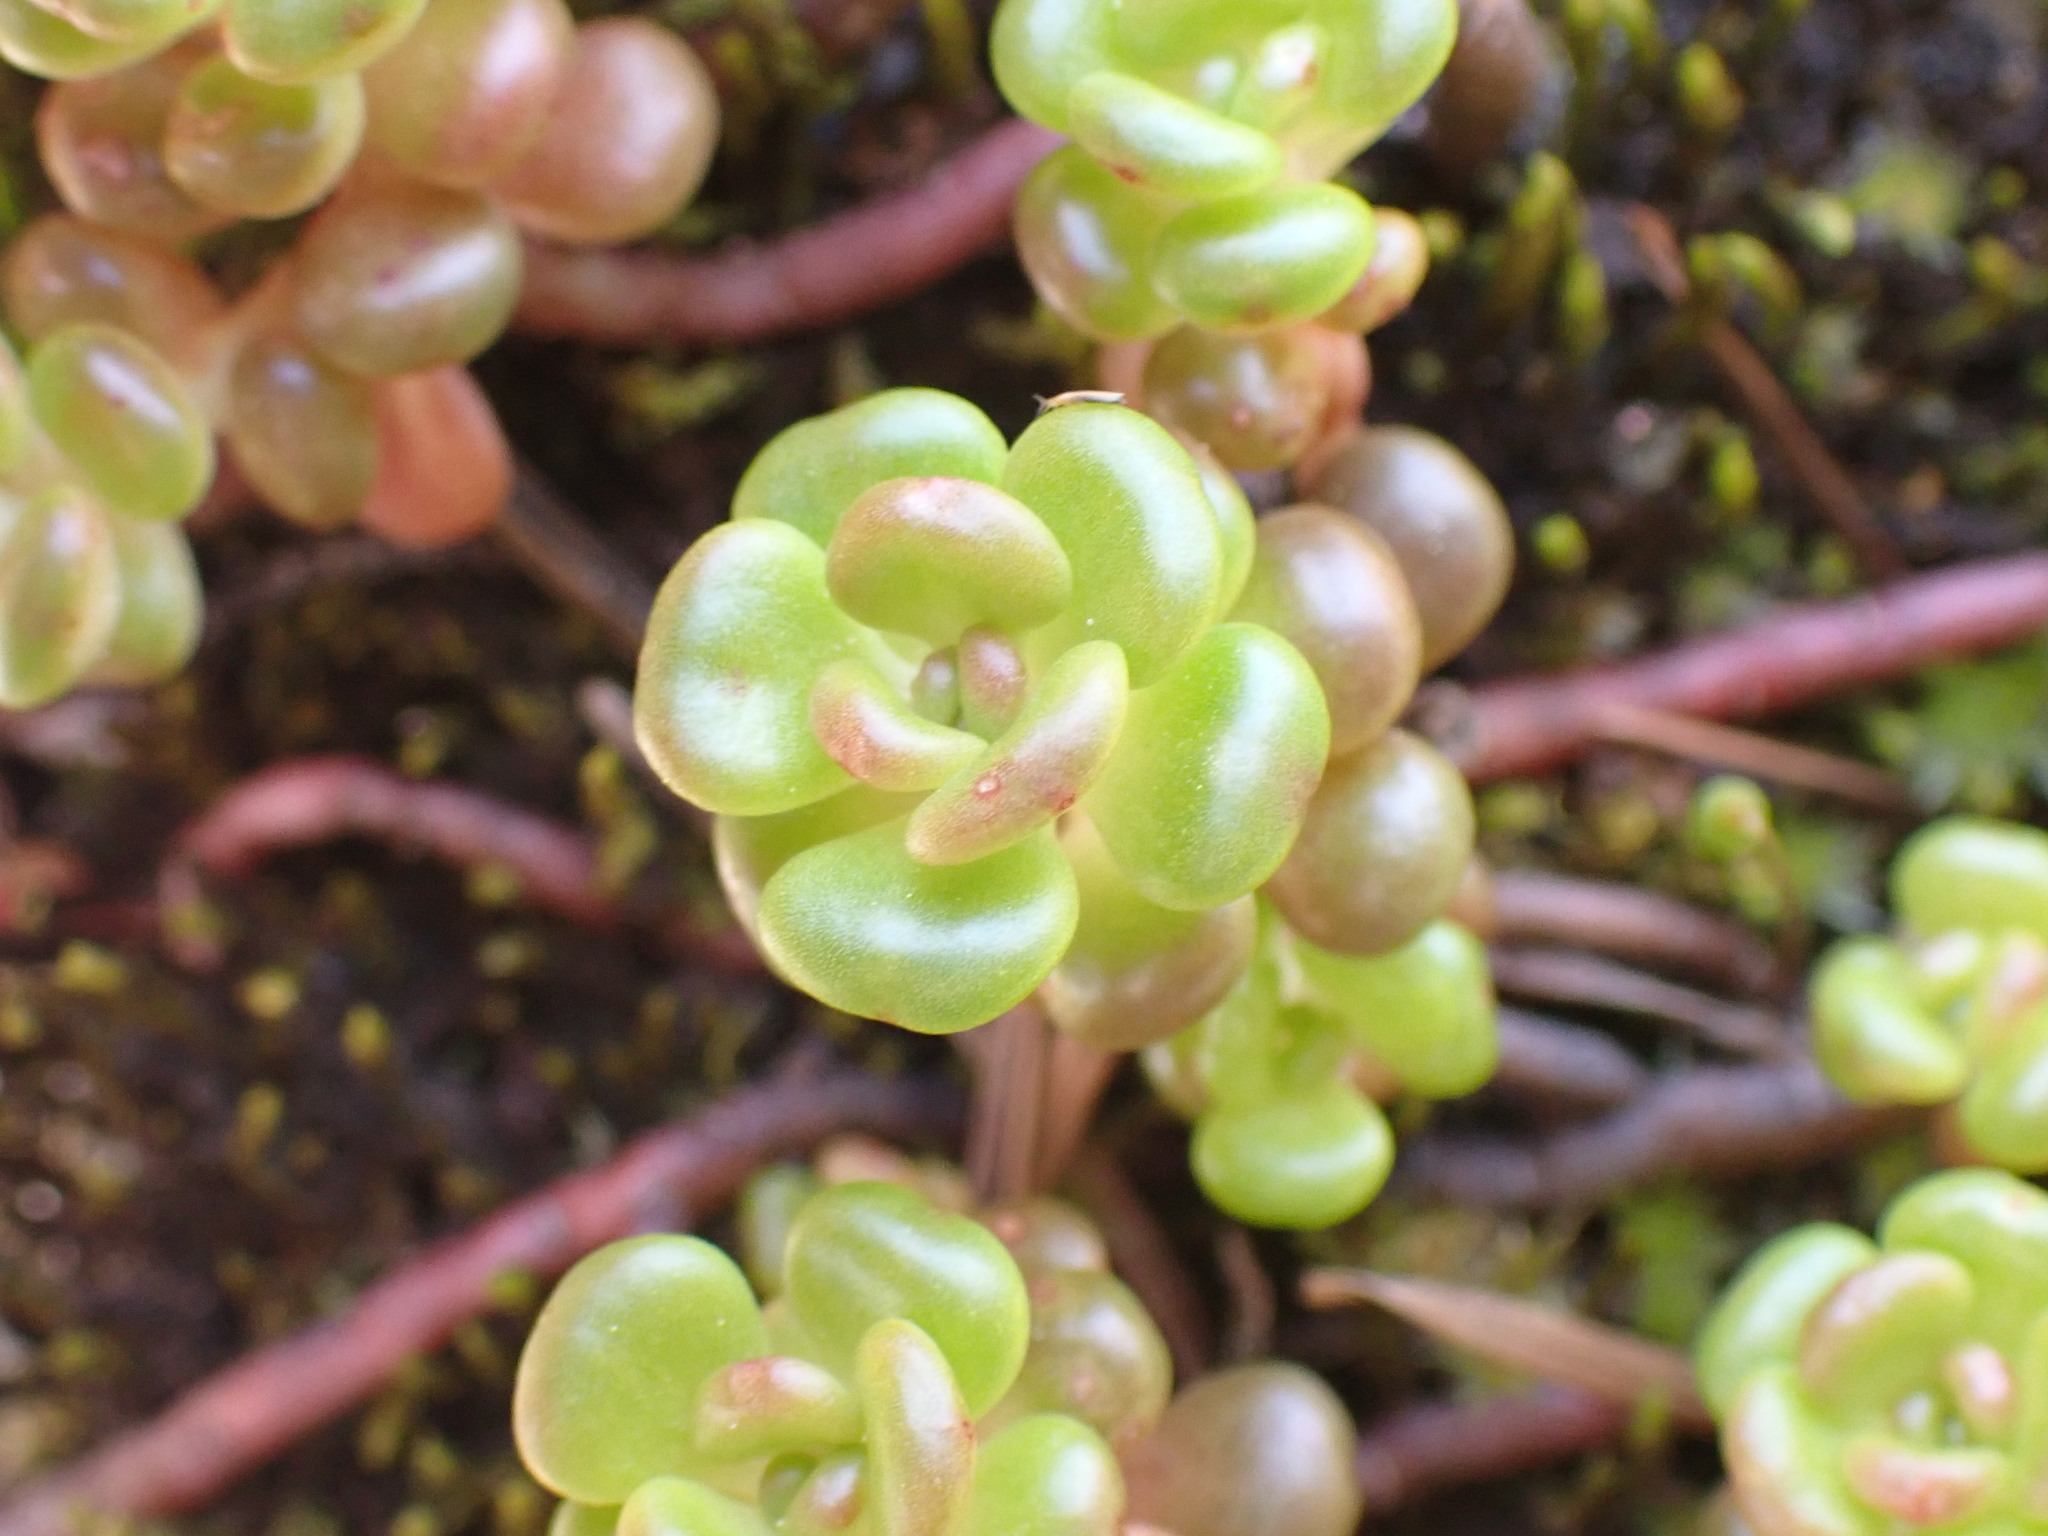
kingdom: Plantae
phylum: Tracheophyta
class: Magnoliopsida
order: Saxifragales
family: Crassulaceae
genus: Sedum
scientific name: Sedum oreganum
